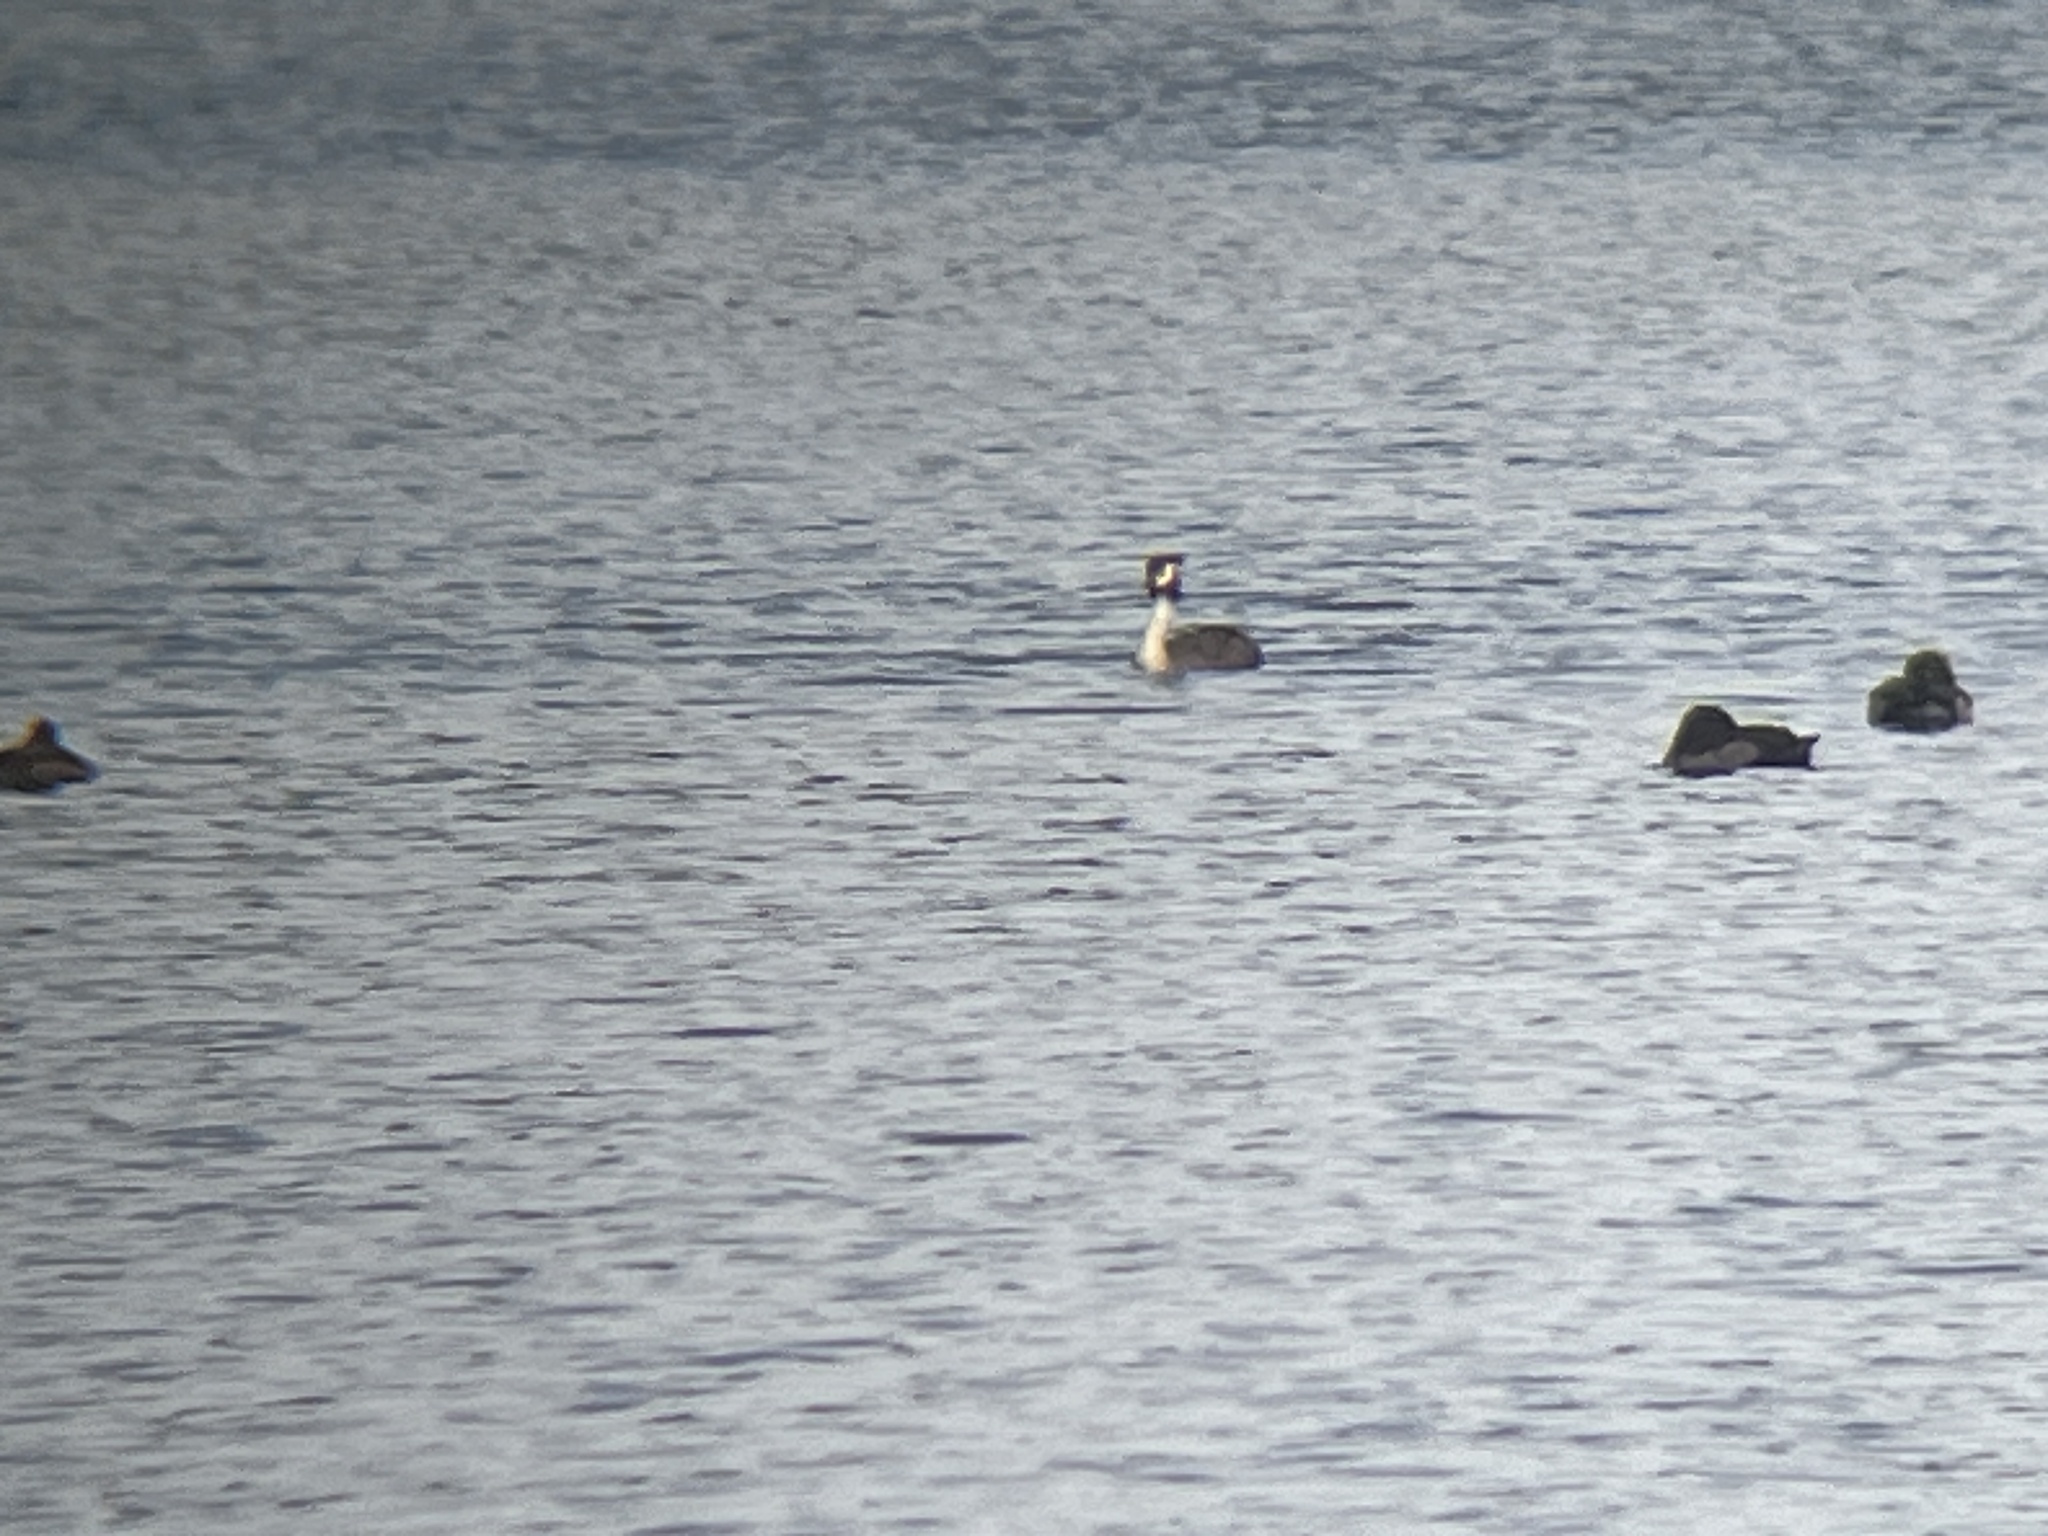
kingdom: Animalia
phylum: Chordata
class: Aves
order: Podicipediformes
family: Podicipedidae
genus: Podiceps
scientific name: Podiceps cristatus
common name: Great crested grebe
